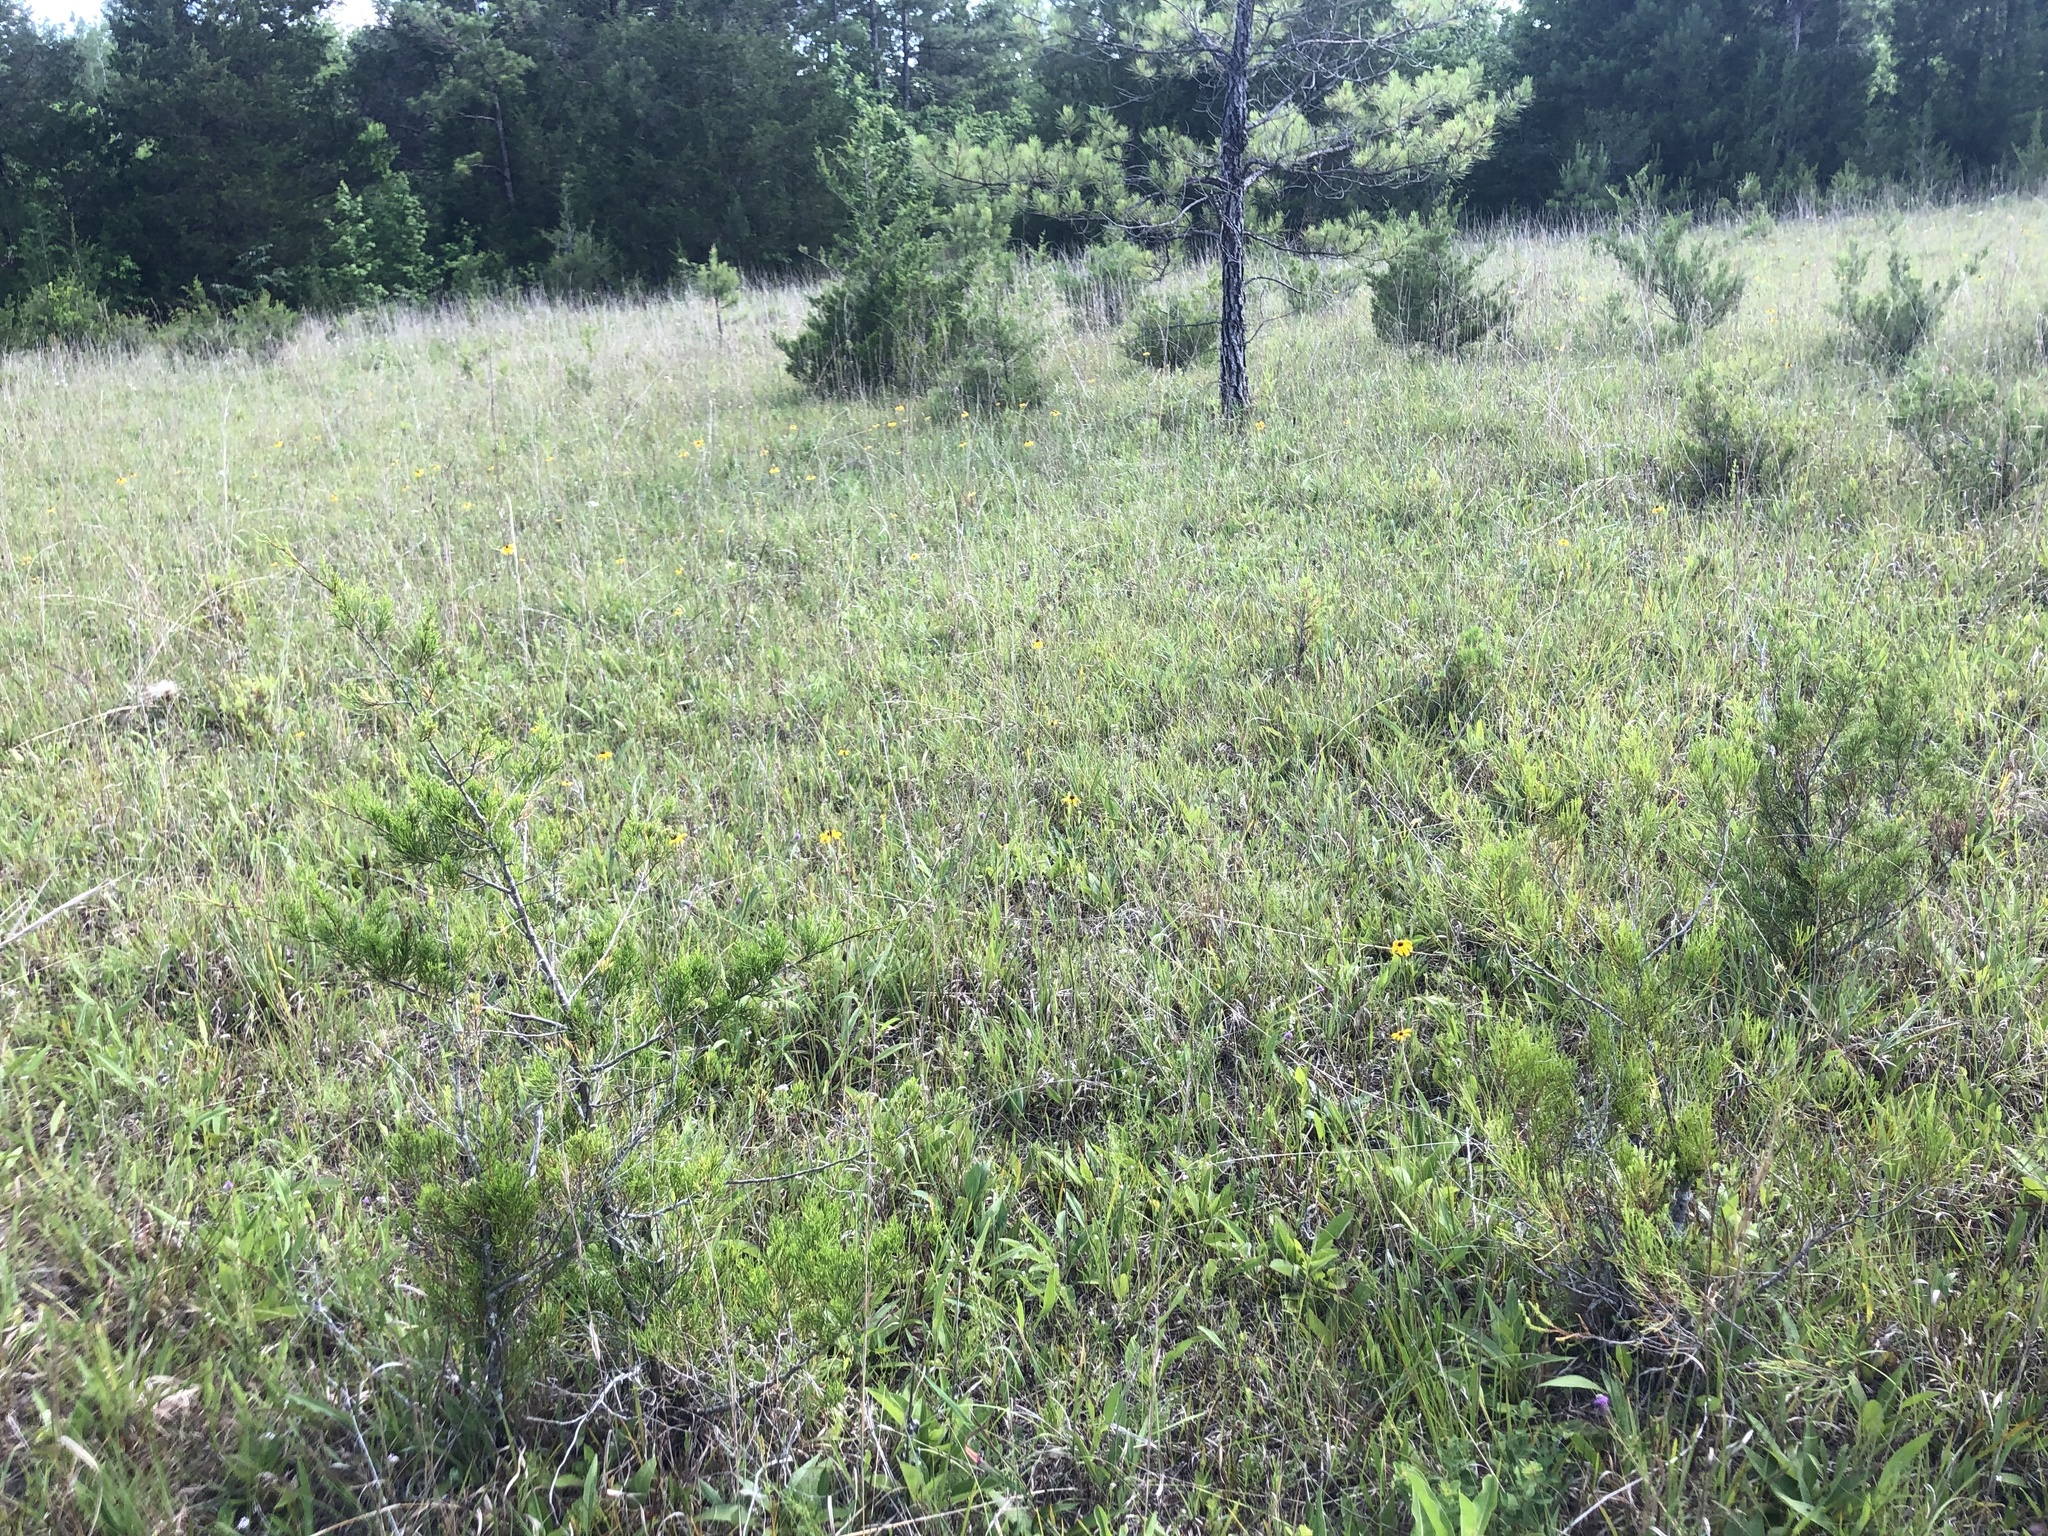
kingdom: Plantae
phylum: Tracheophyta
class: Magnoliopsida
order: Asterales
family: Asteraceae
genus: Silphium
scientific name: Silphium confertifolium
